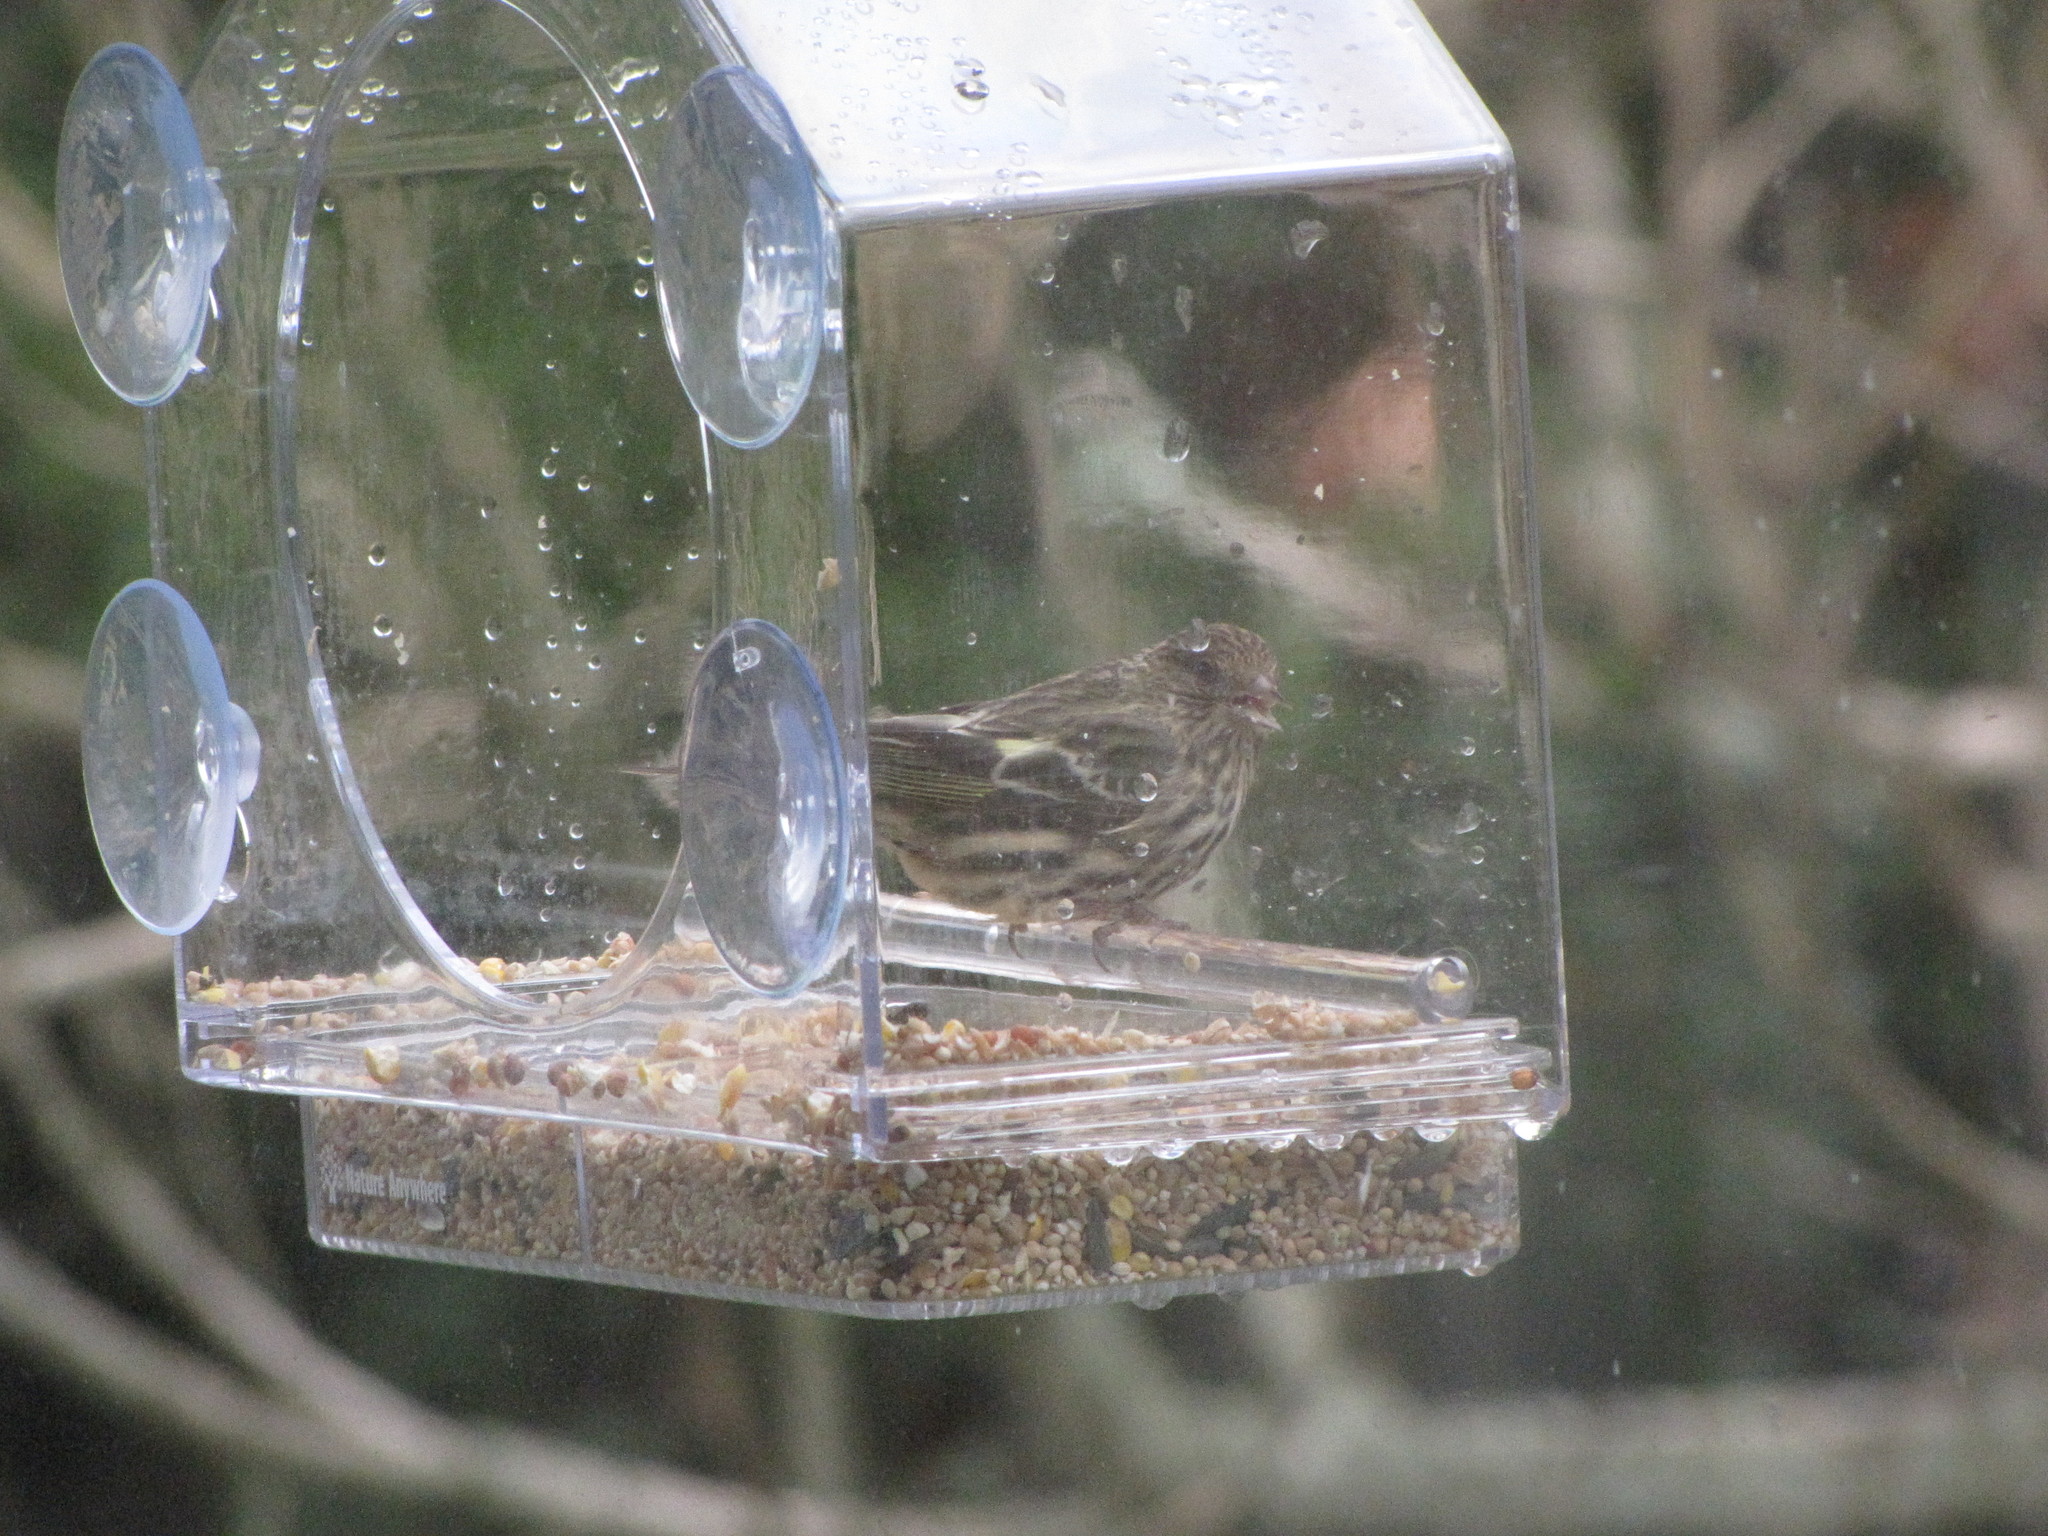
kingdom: Animalia
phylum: Chordata
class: Aves
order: Passeriformes
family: Fringillidae
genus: Spinus
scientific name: Spinus pinus
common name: Pine siskin
